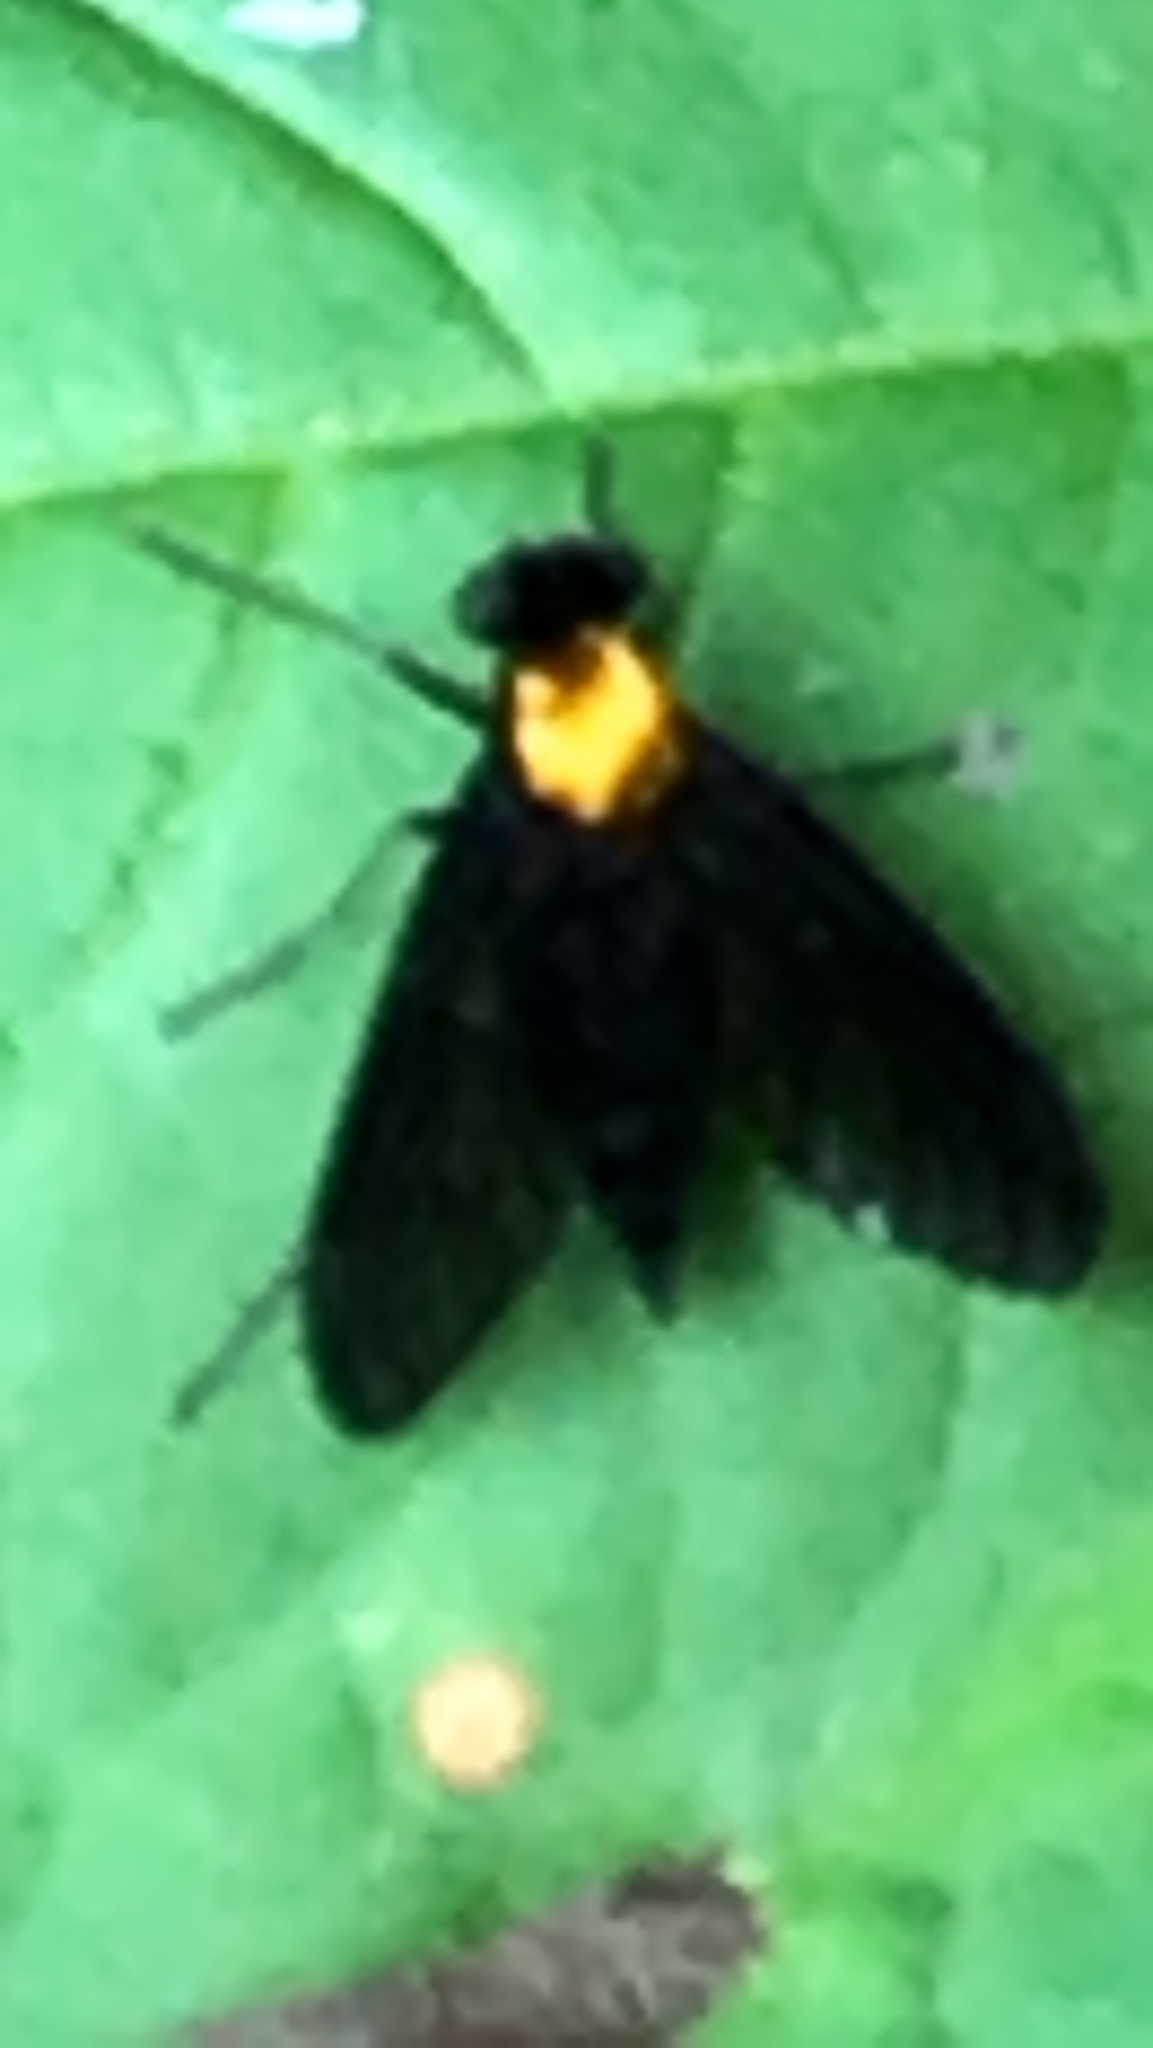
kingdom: Animalia
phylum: Arthropoda
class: Insecta
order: Diptera
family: Rhagionidae
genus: Chrysopilus
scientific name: Chrysopilus thoracicus
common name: Golden-backed snipe fly
